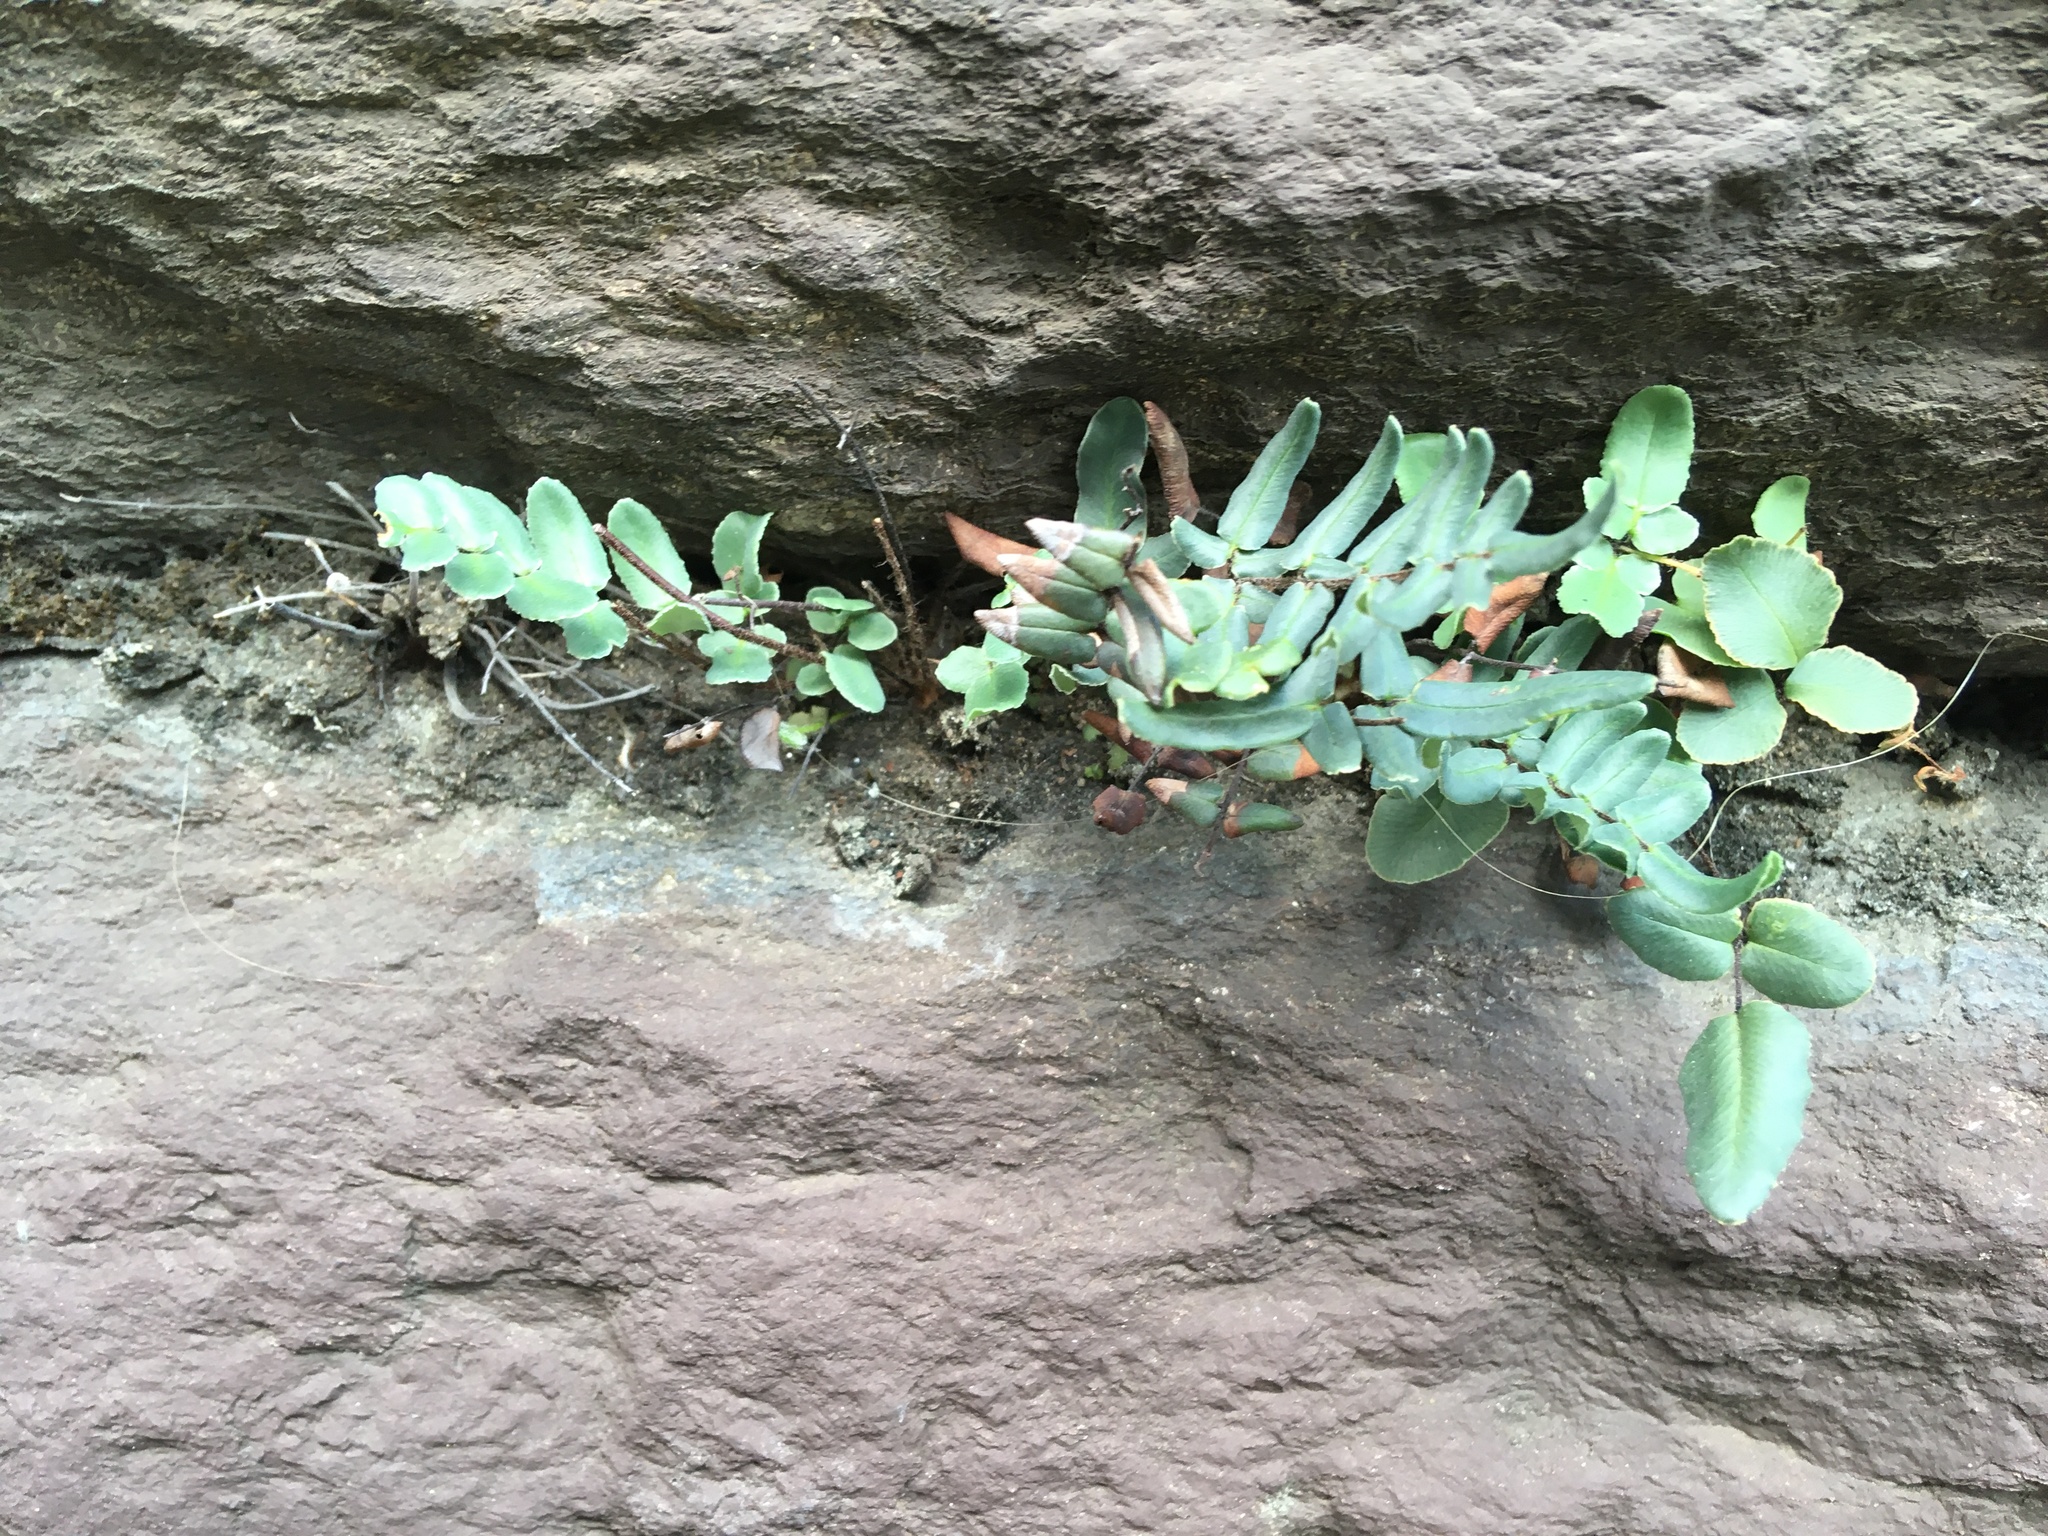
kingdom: Plantae
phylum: Tracheophyta
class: Polypodiopsida
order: Polypodiales
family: Pteridaceae
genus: Pellaea
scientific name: Pellaea atropurpurea
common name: Hairy cliffbrake
